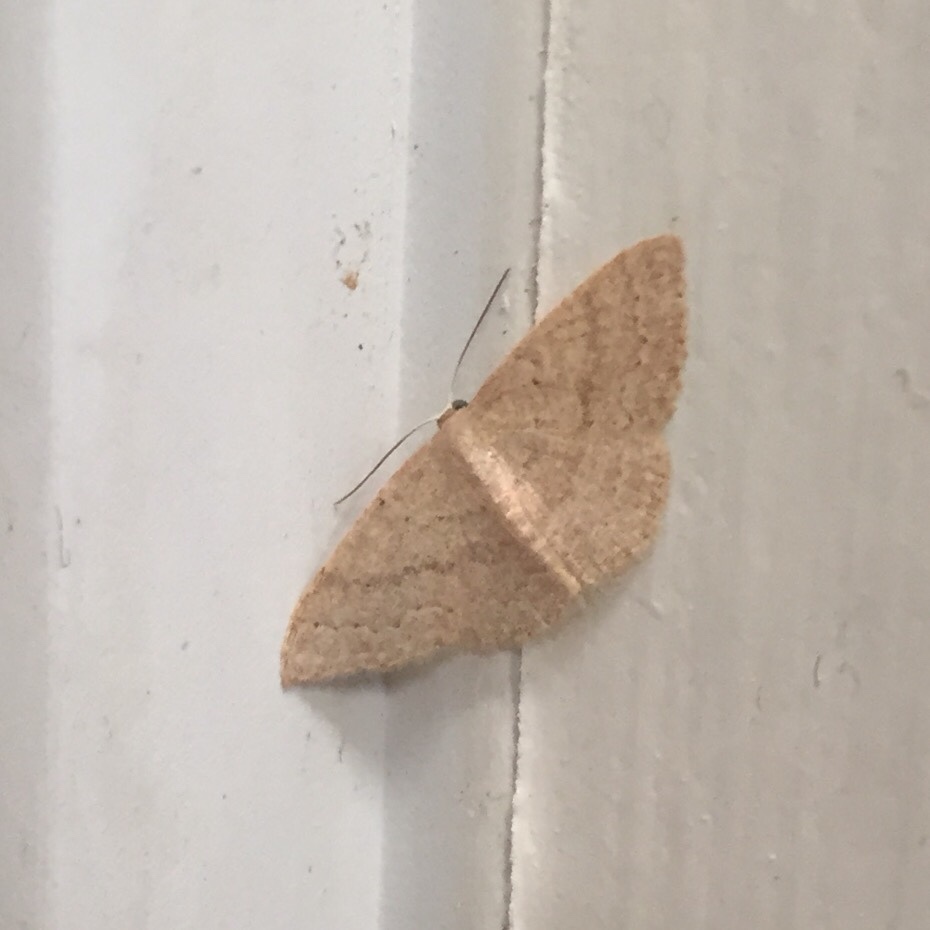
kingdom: Animalia
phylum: Arthropoda
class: Insecta
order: Lepidoptera
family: Geometridae
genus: Pleuroprucha
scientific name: Pleuroprucha insulsaria
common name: Common tan wave
